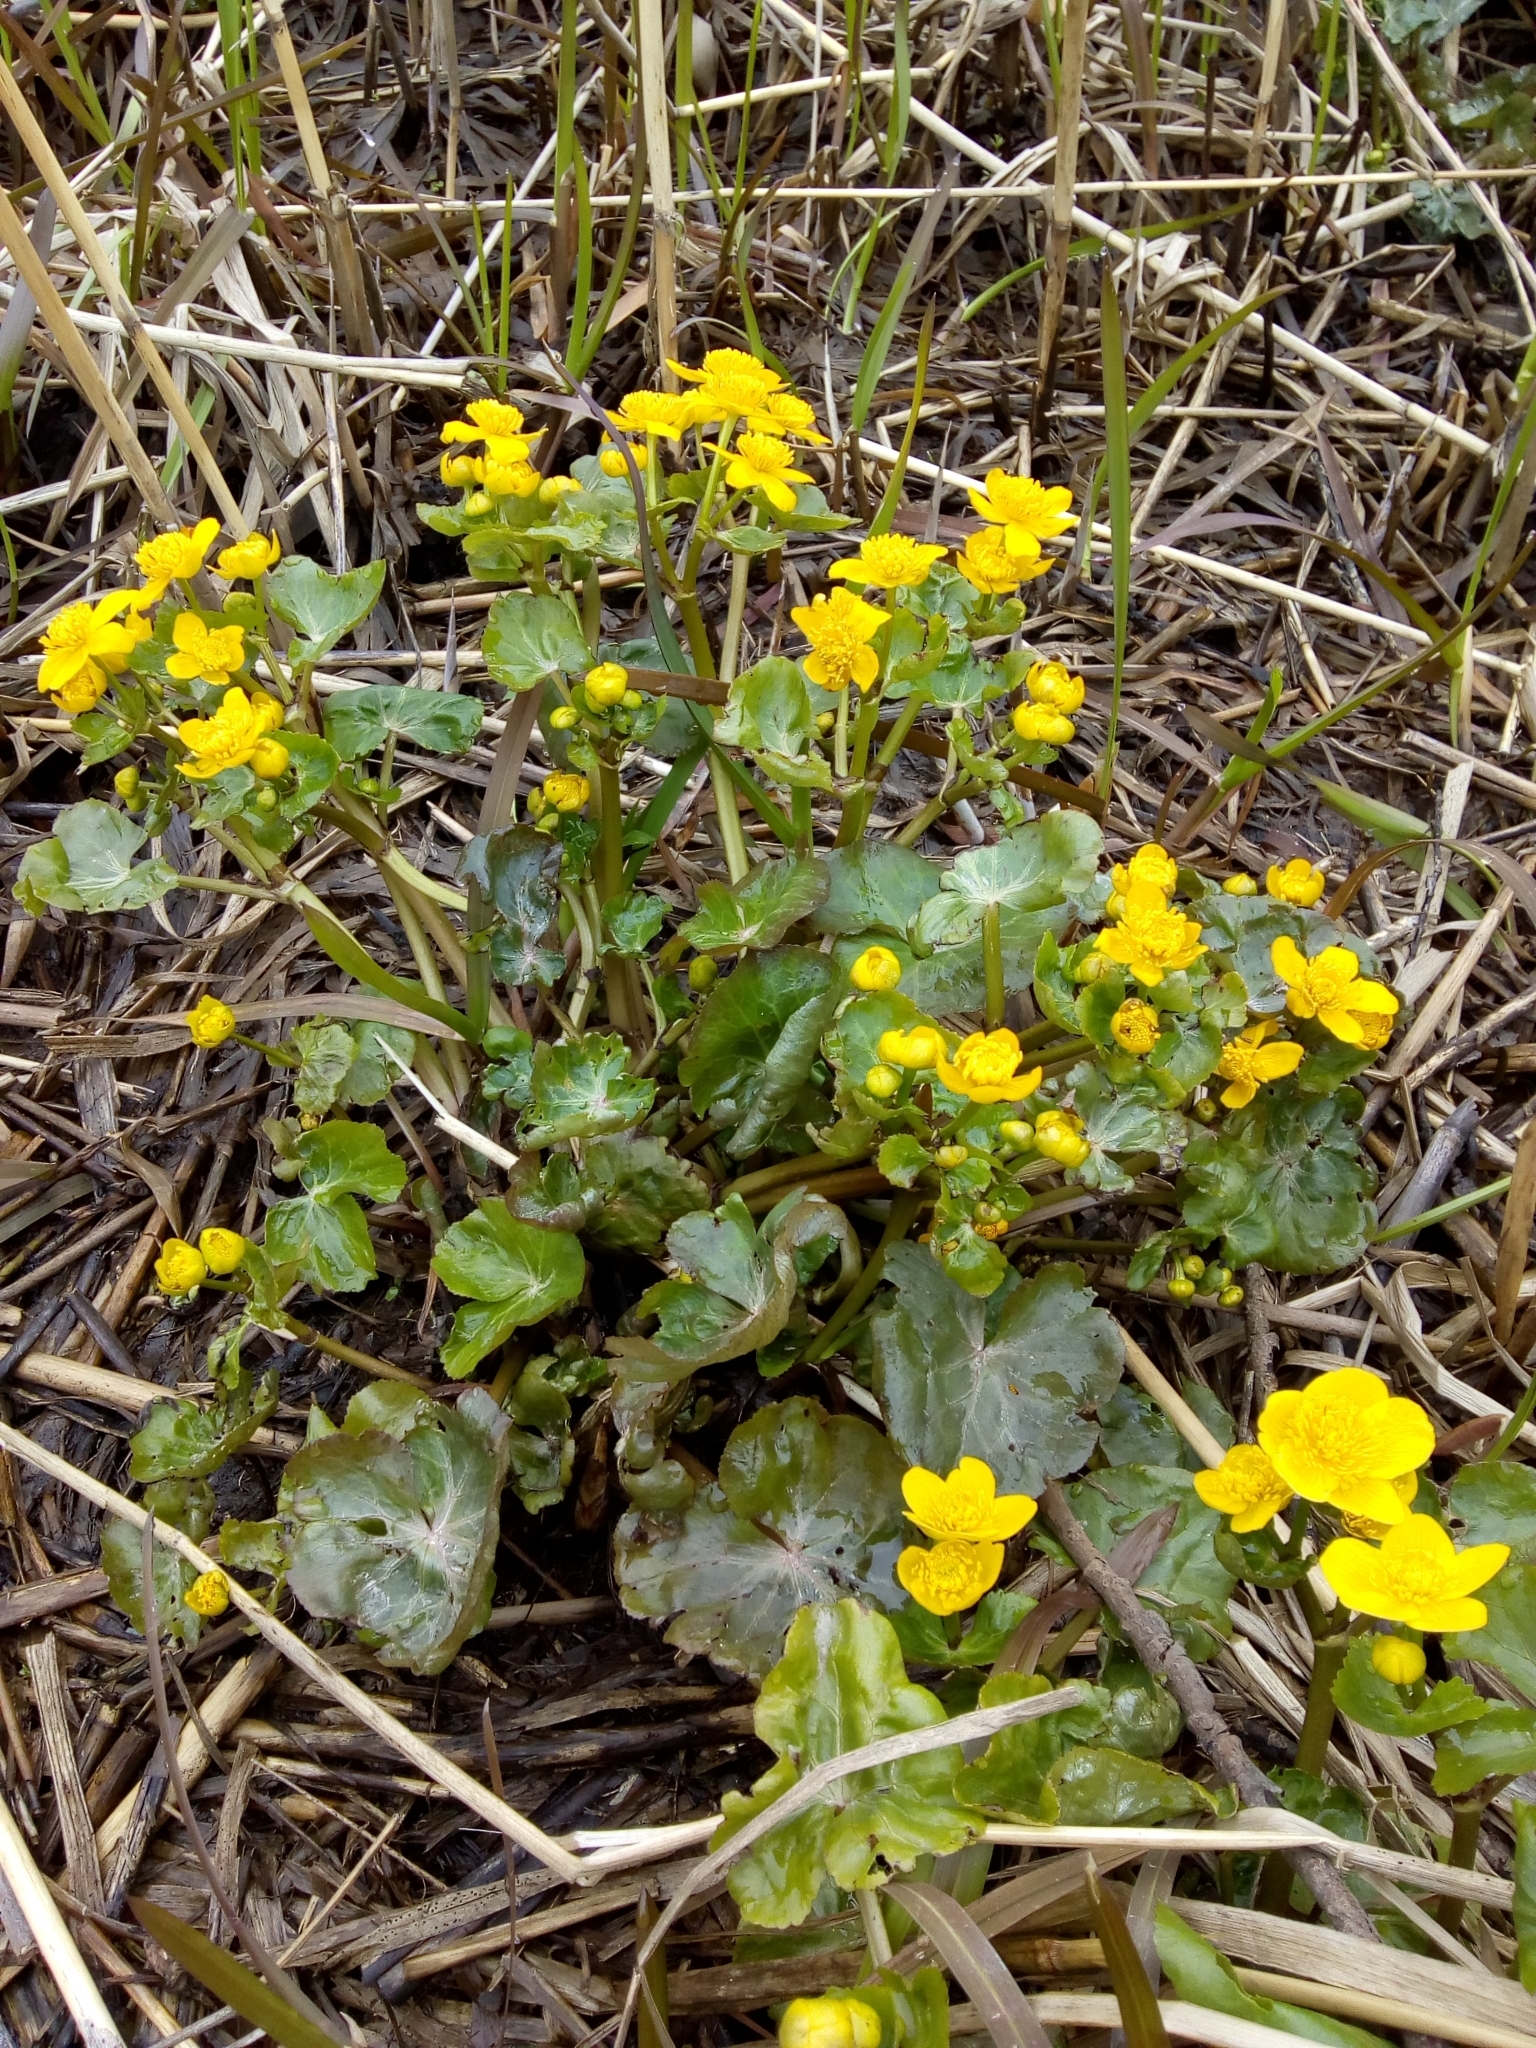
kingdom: Plantae
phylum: Tracheophyta
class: Magnoliopsida
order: Ranunculales
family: Ranunculaceae
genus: Caltha
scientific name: Caltha palustris
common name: Marsh marigold
